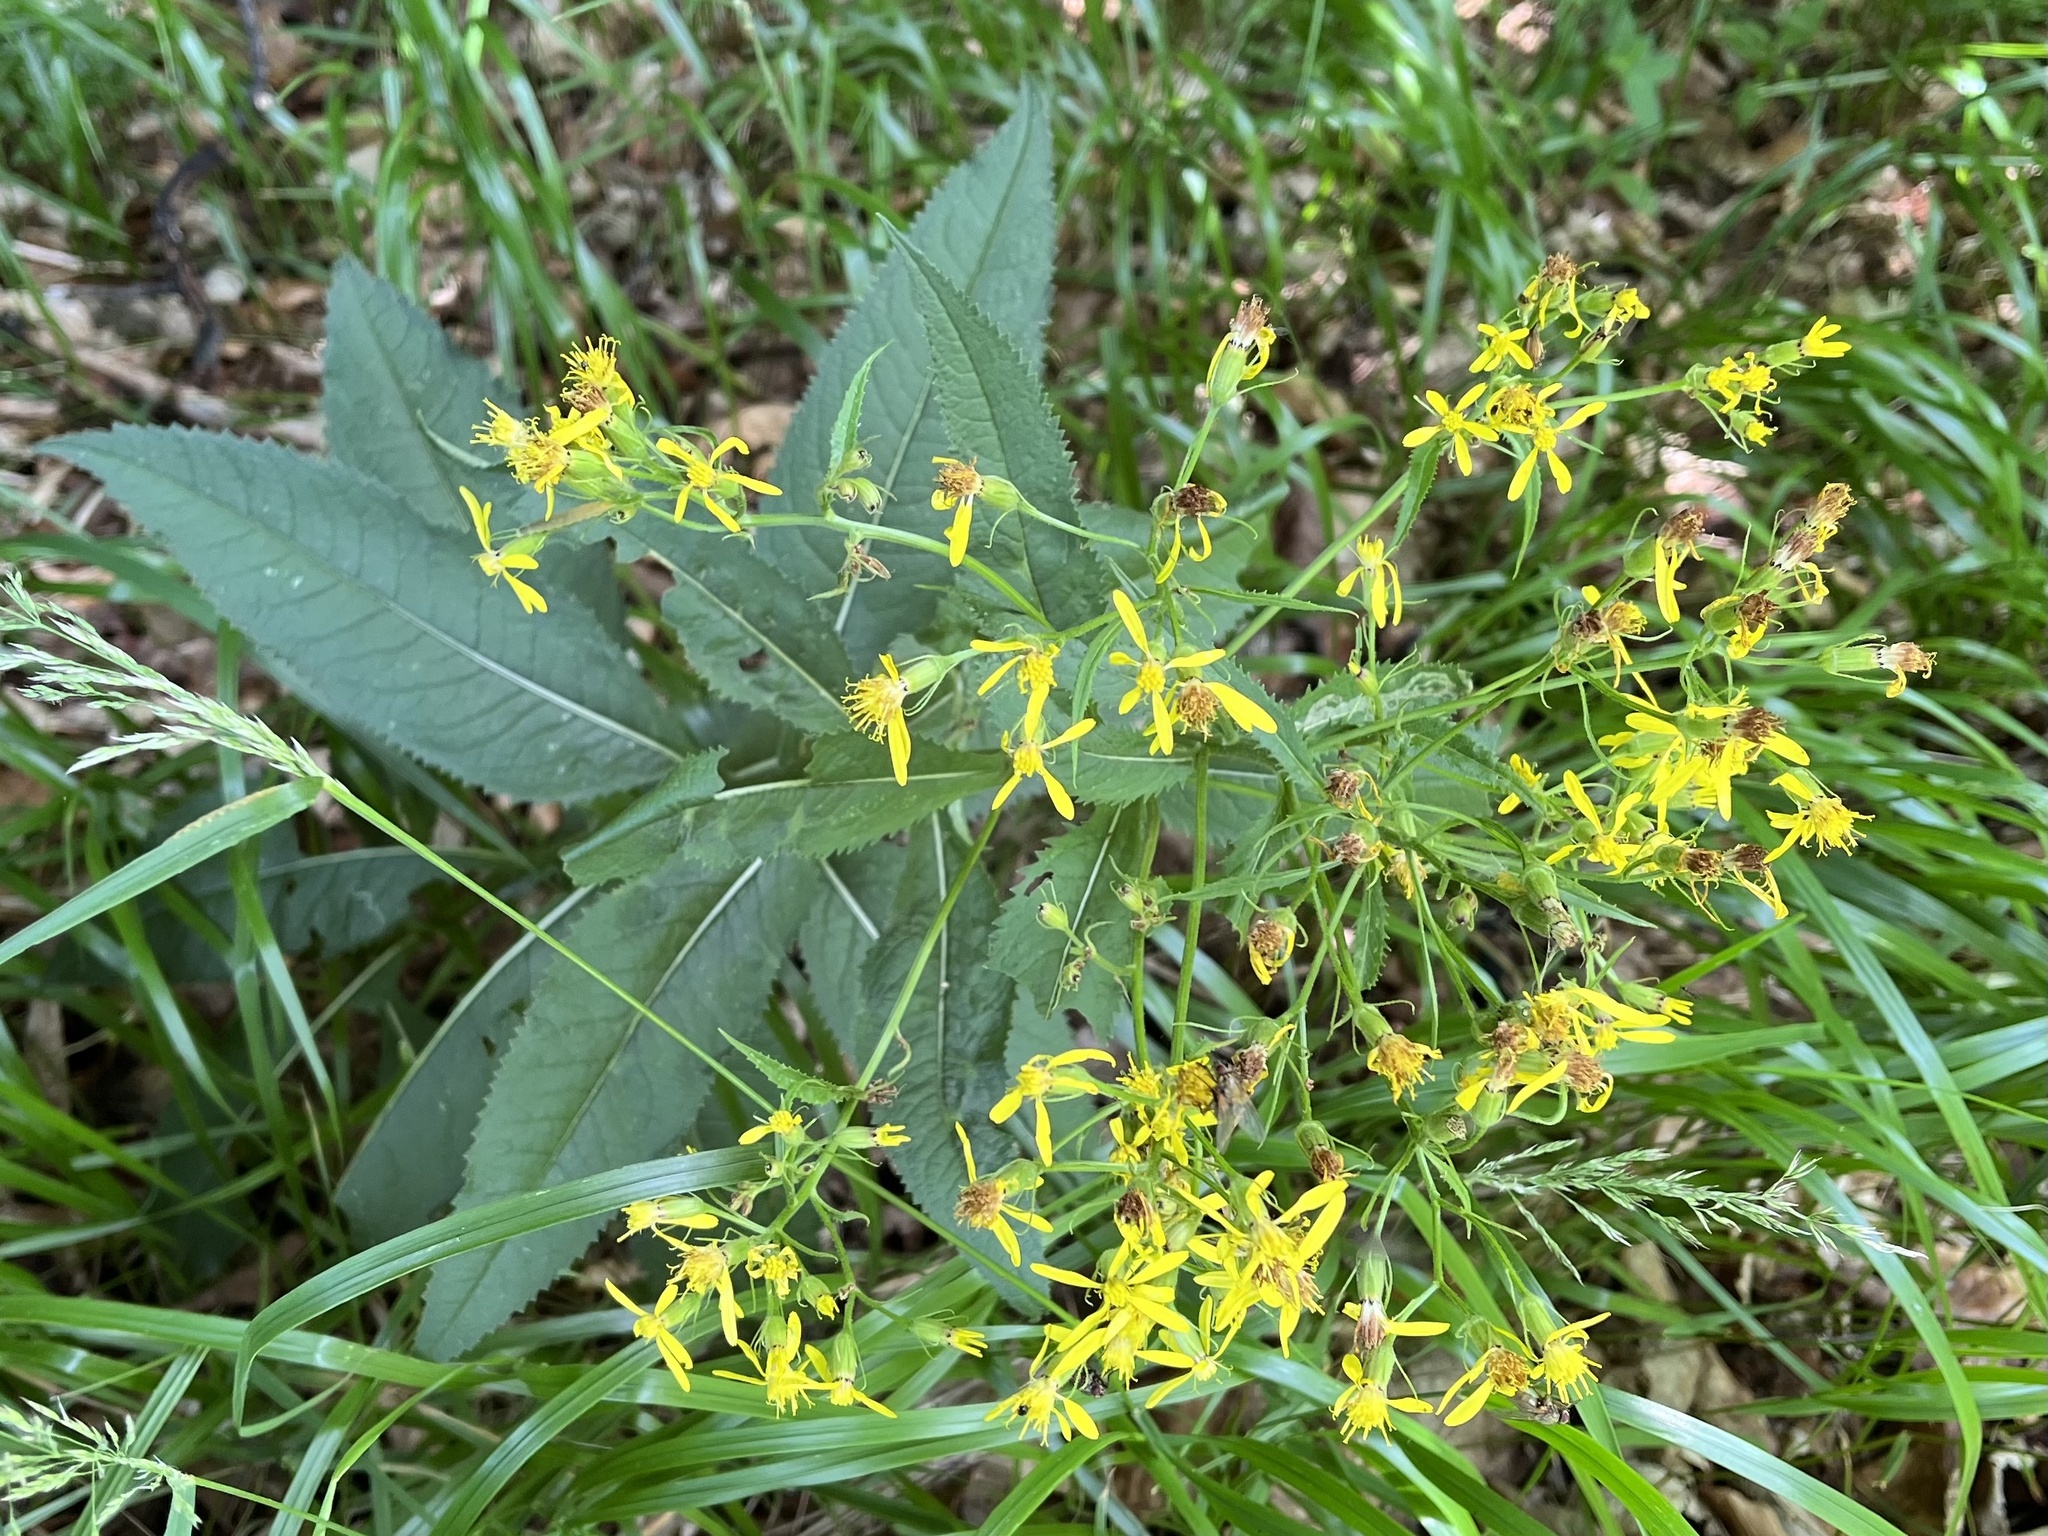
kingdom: Plantae
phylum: Tracheophyta
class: Magnoliopsida
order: Asterales
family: Asteraceae
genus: Senecio
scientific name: Senecio hercynicus
